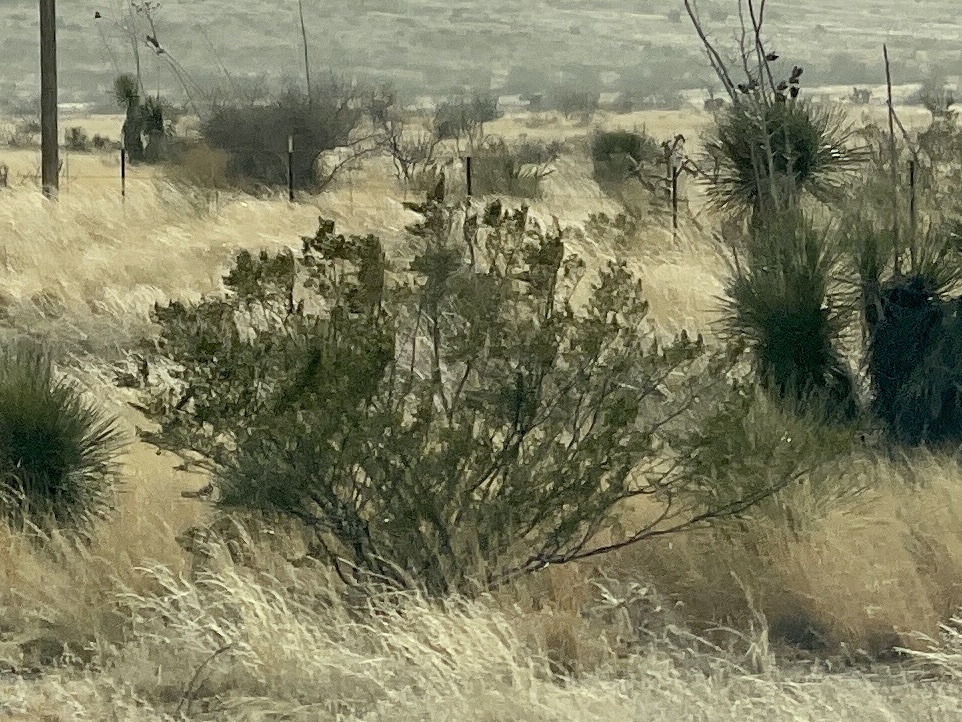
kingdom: Plantae
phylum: Tracheophyta
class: Magnoliopsida
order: Zygophyllales
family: Zygophyllaceae
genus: Larrea
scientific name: Larrea tridentata
